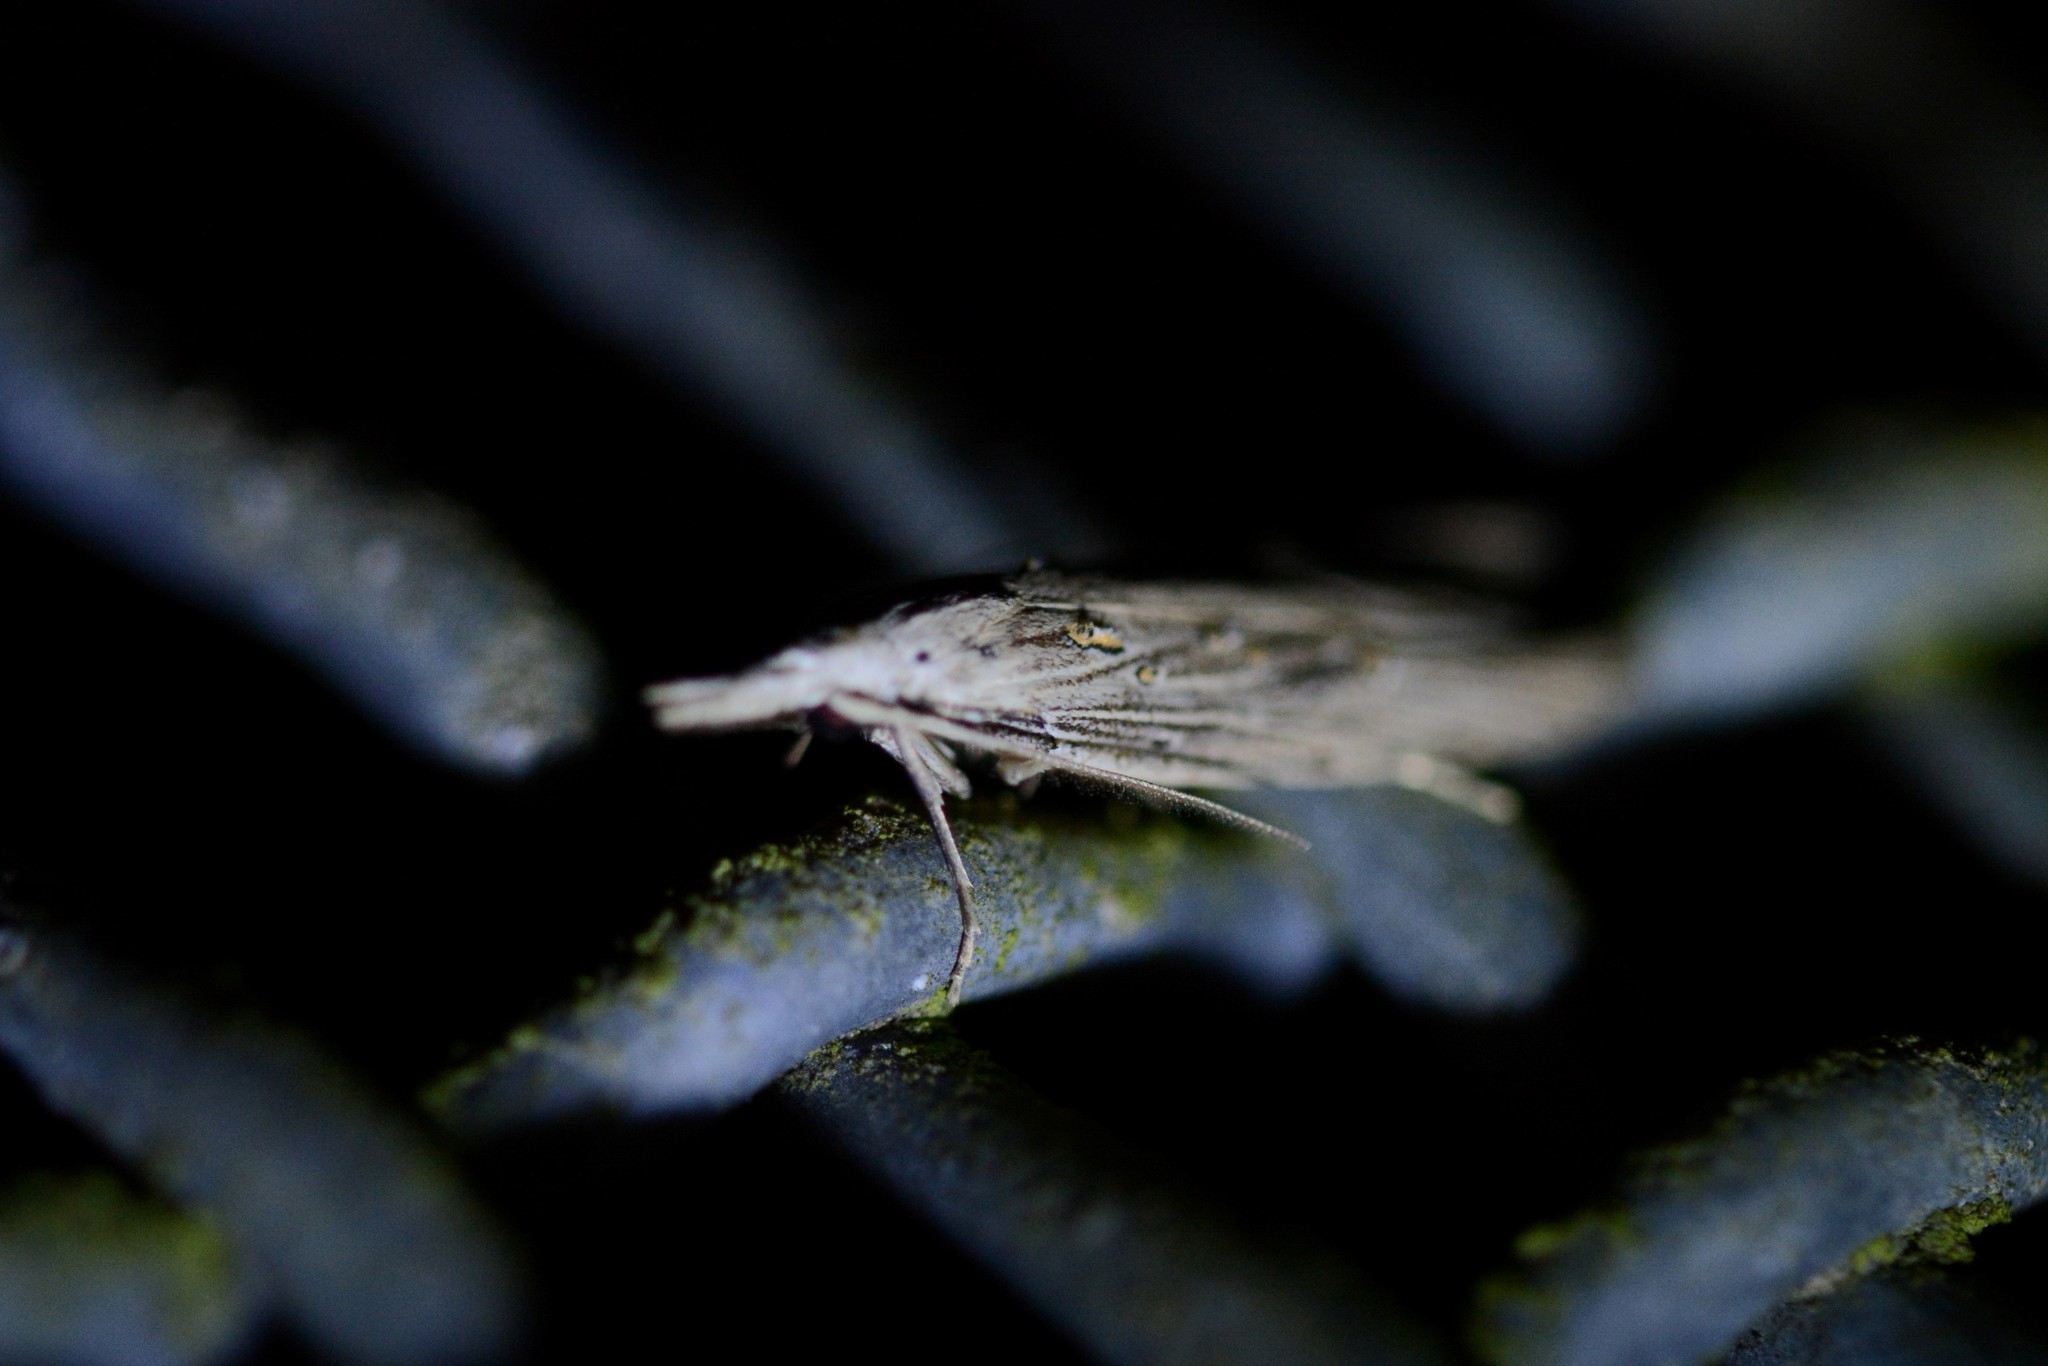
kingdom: Animalia
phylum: Arthropoda
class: Insecta
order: Lepidoptera
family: Carposinidae
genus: Carposina
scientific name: Carposina Heterocrossa exochana
